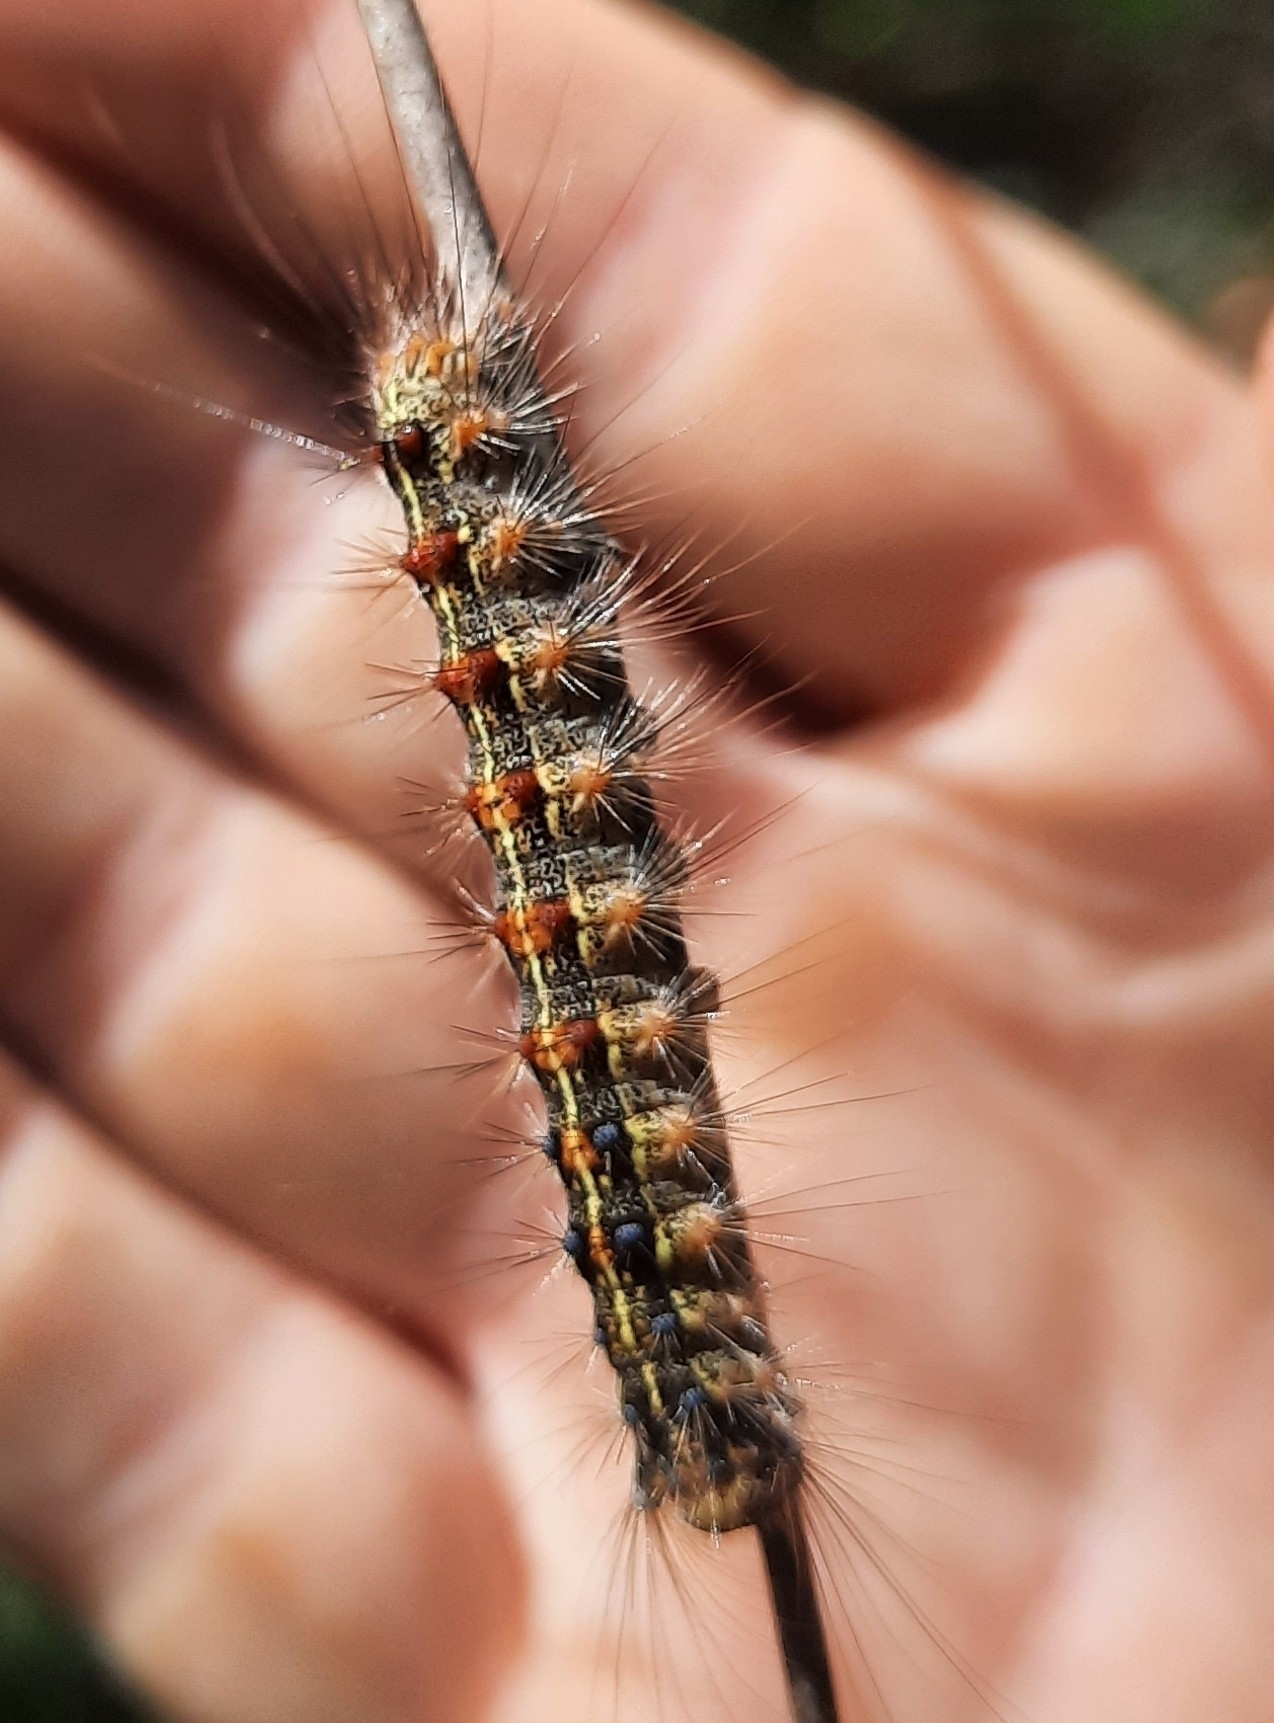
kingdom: Animalia
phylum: Arthropoda
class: Insecta
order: Lepidoptera
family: Erebidae
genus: Lymantria
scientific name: Lymantria dispar
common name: Gypsy moth
